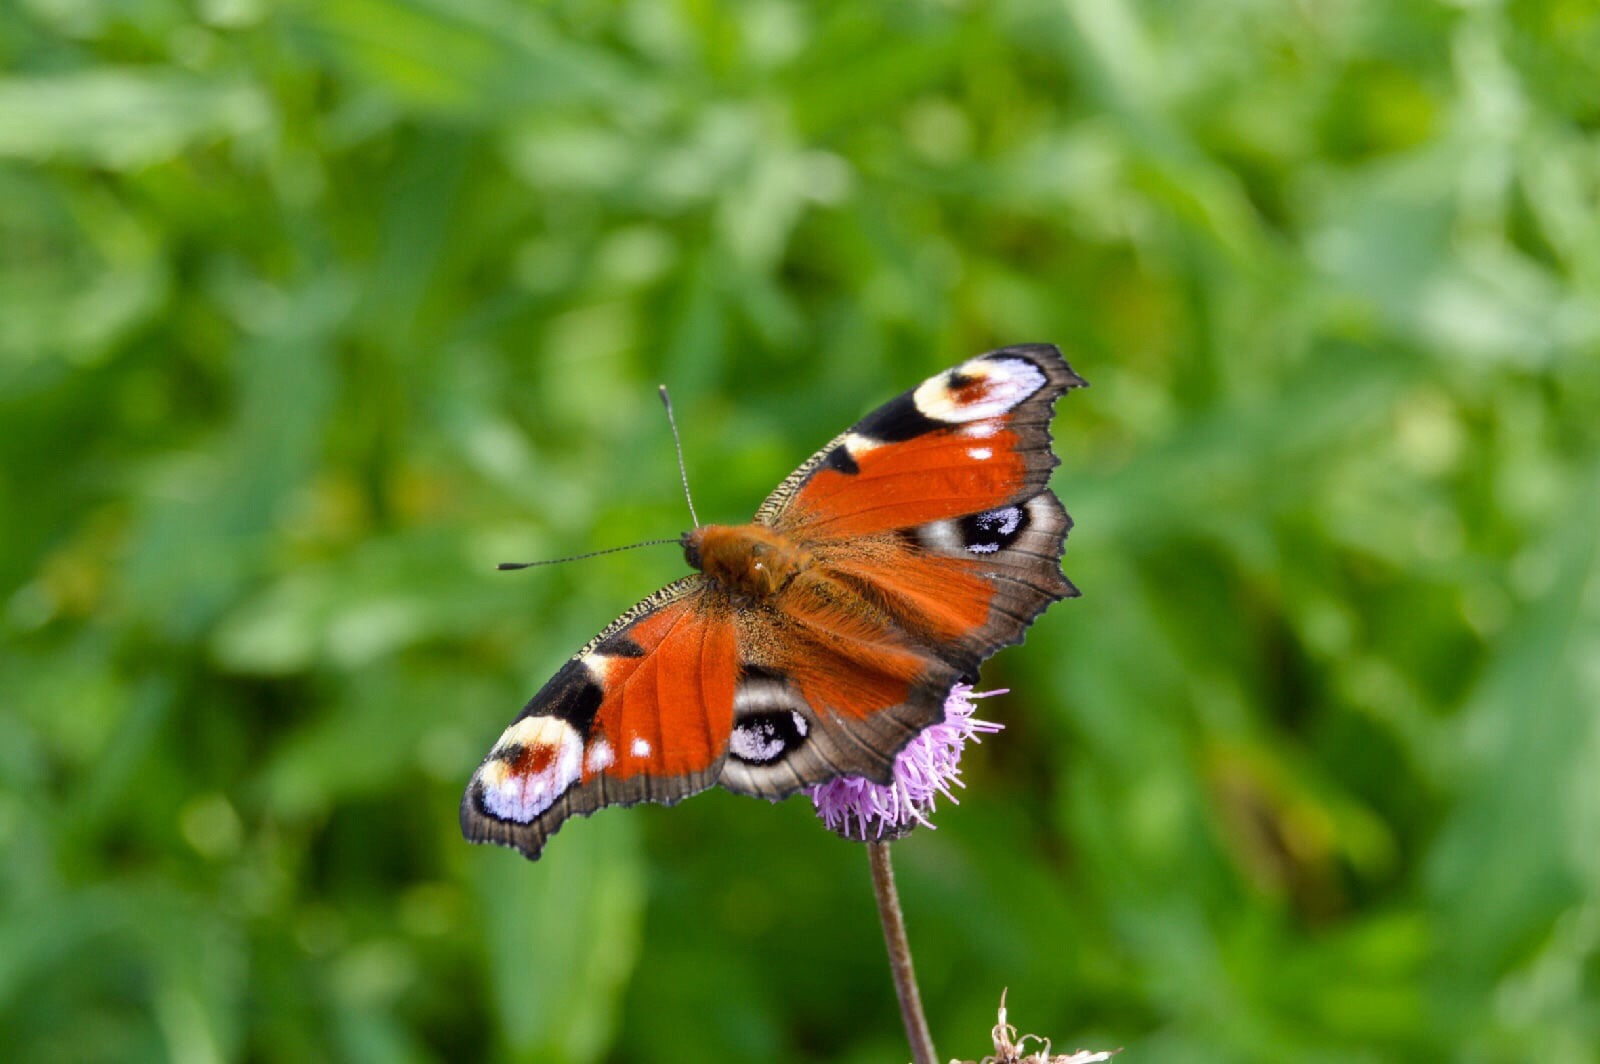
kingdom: Animalia
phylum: Arthropoda
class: Insecta
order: Lepidoptera
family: Nymphalidae
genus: Aglais
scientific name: Aglais io
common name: Peacock
